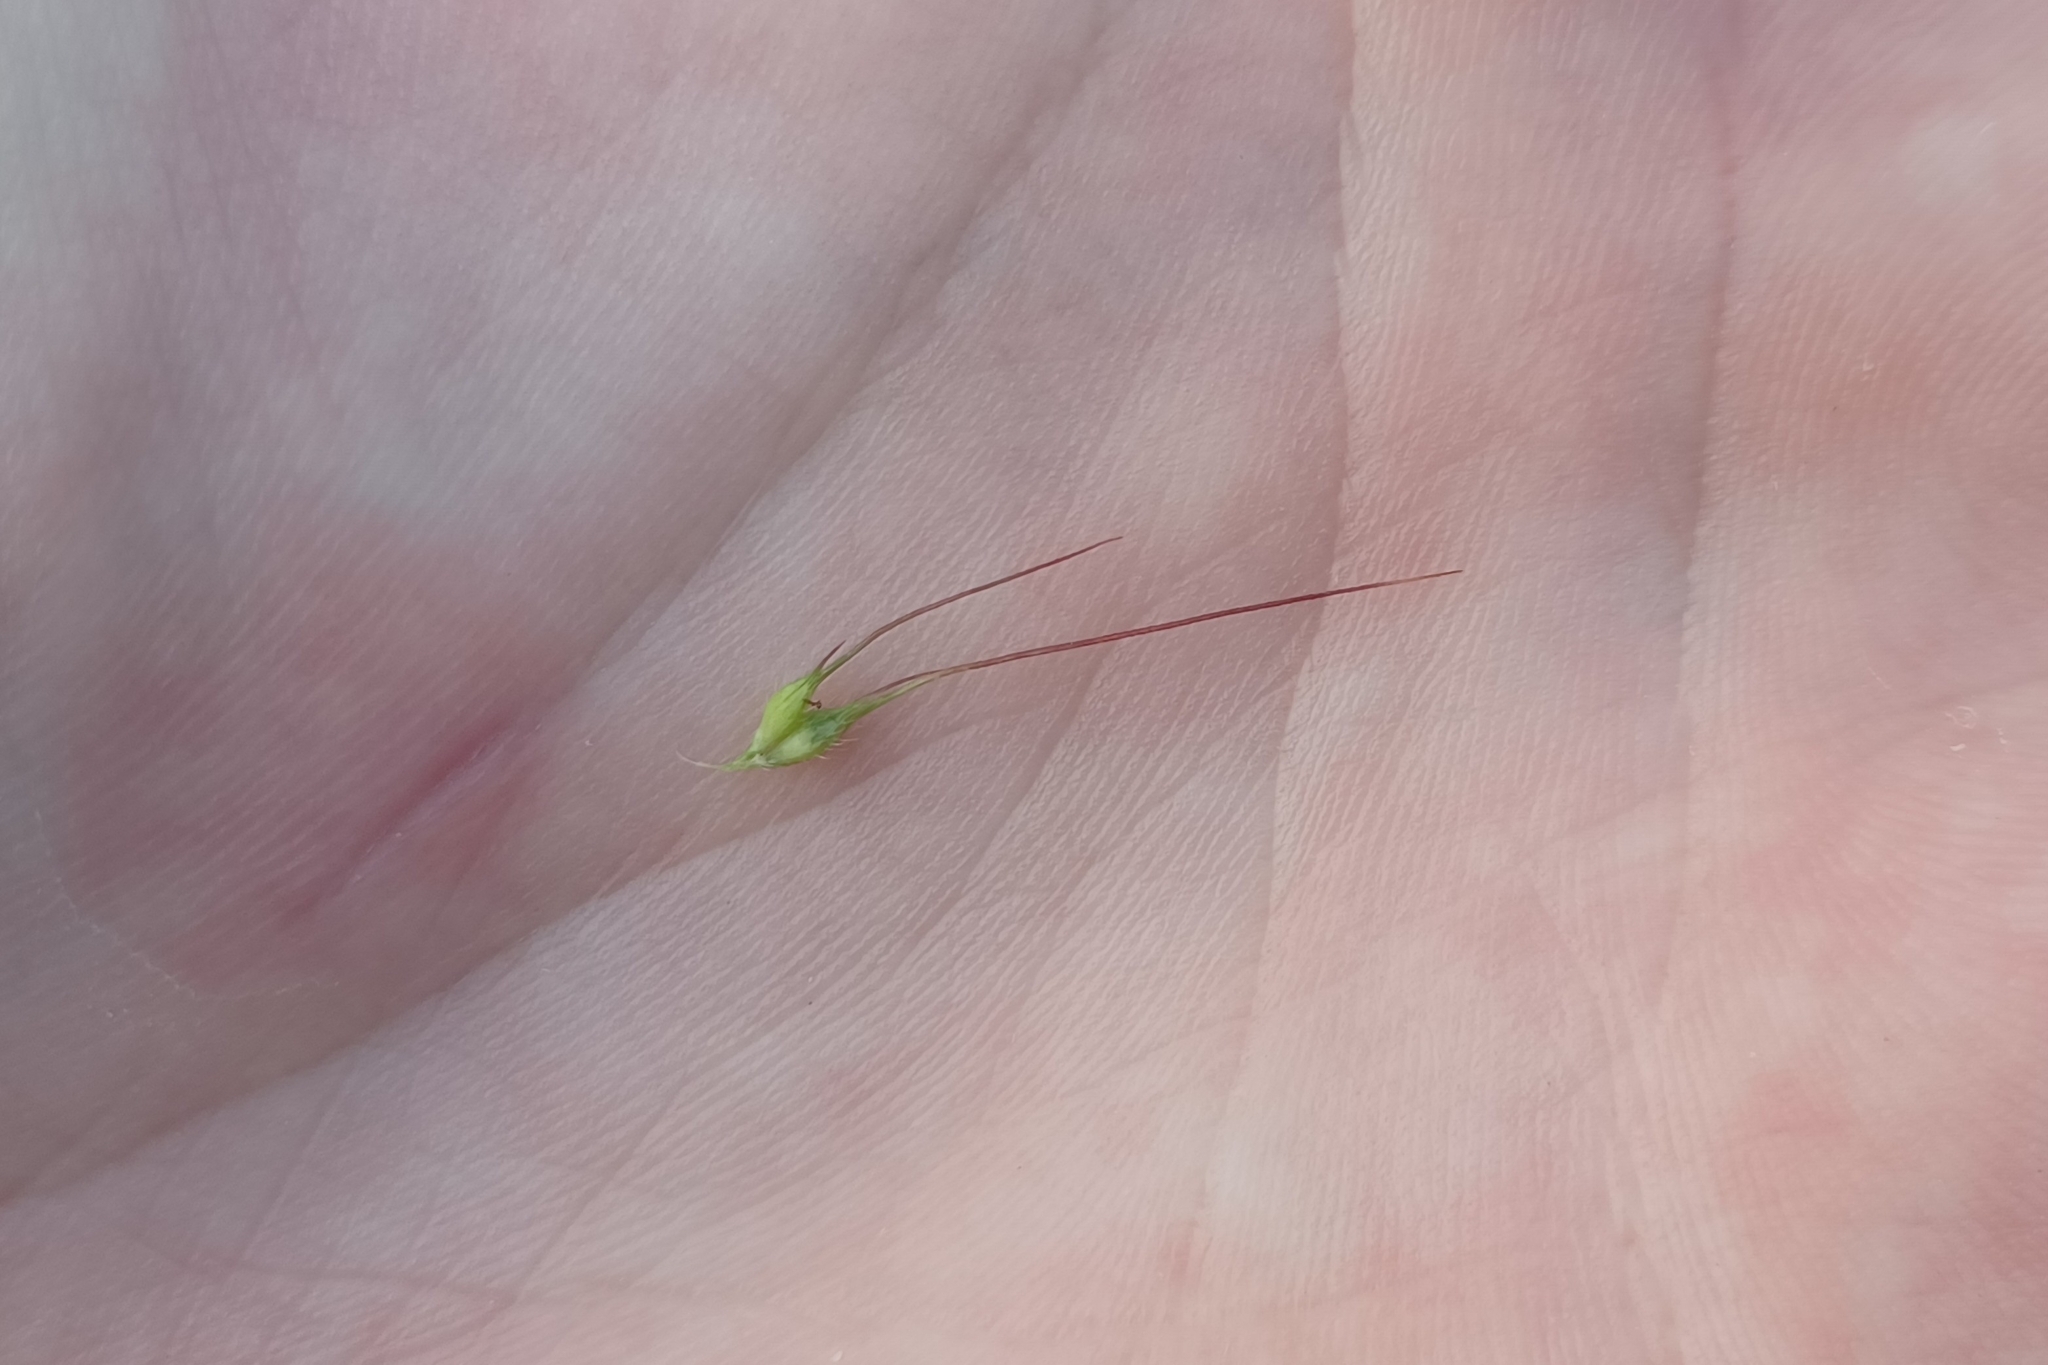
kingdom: Plantae
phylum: Tracheophyta
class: Liliopsida
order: Poales
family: Poaceae
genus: Echinochloa
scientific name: Echinochloa walteri
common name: Coast barnyard grass
